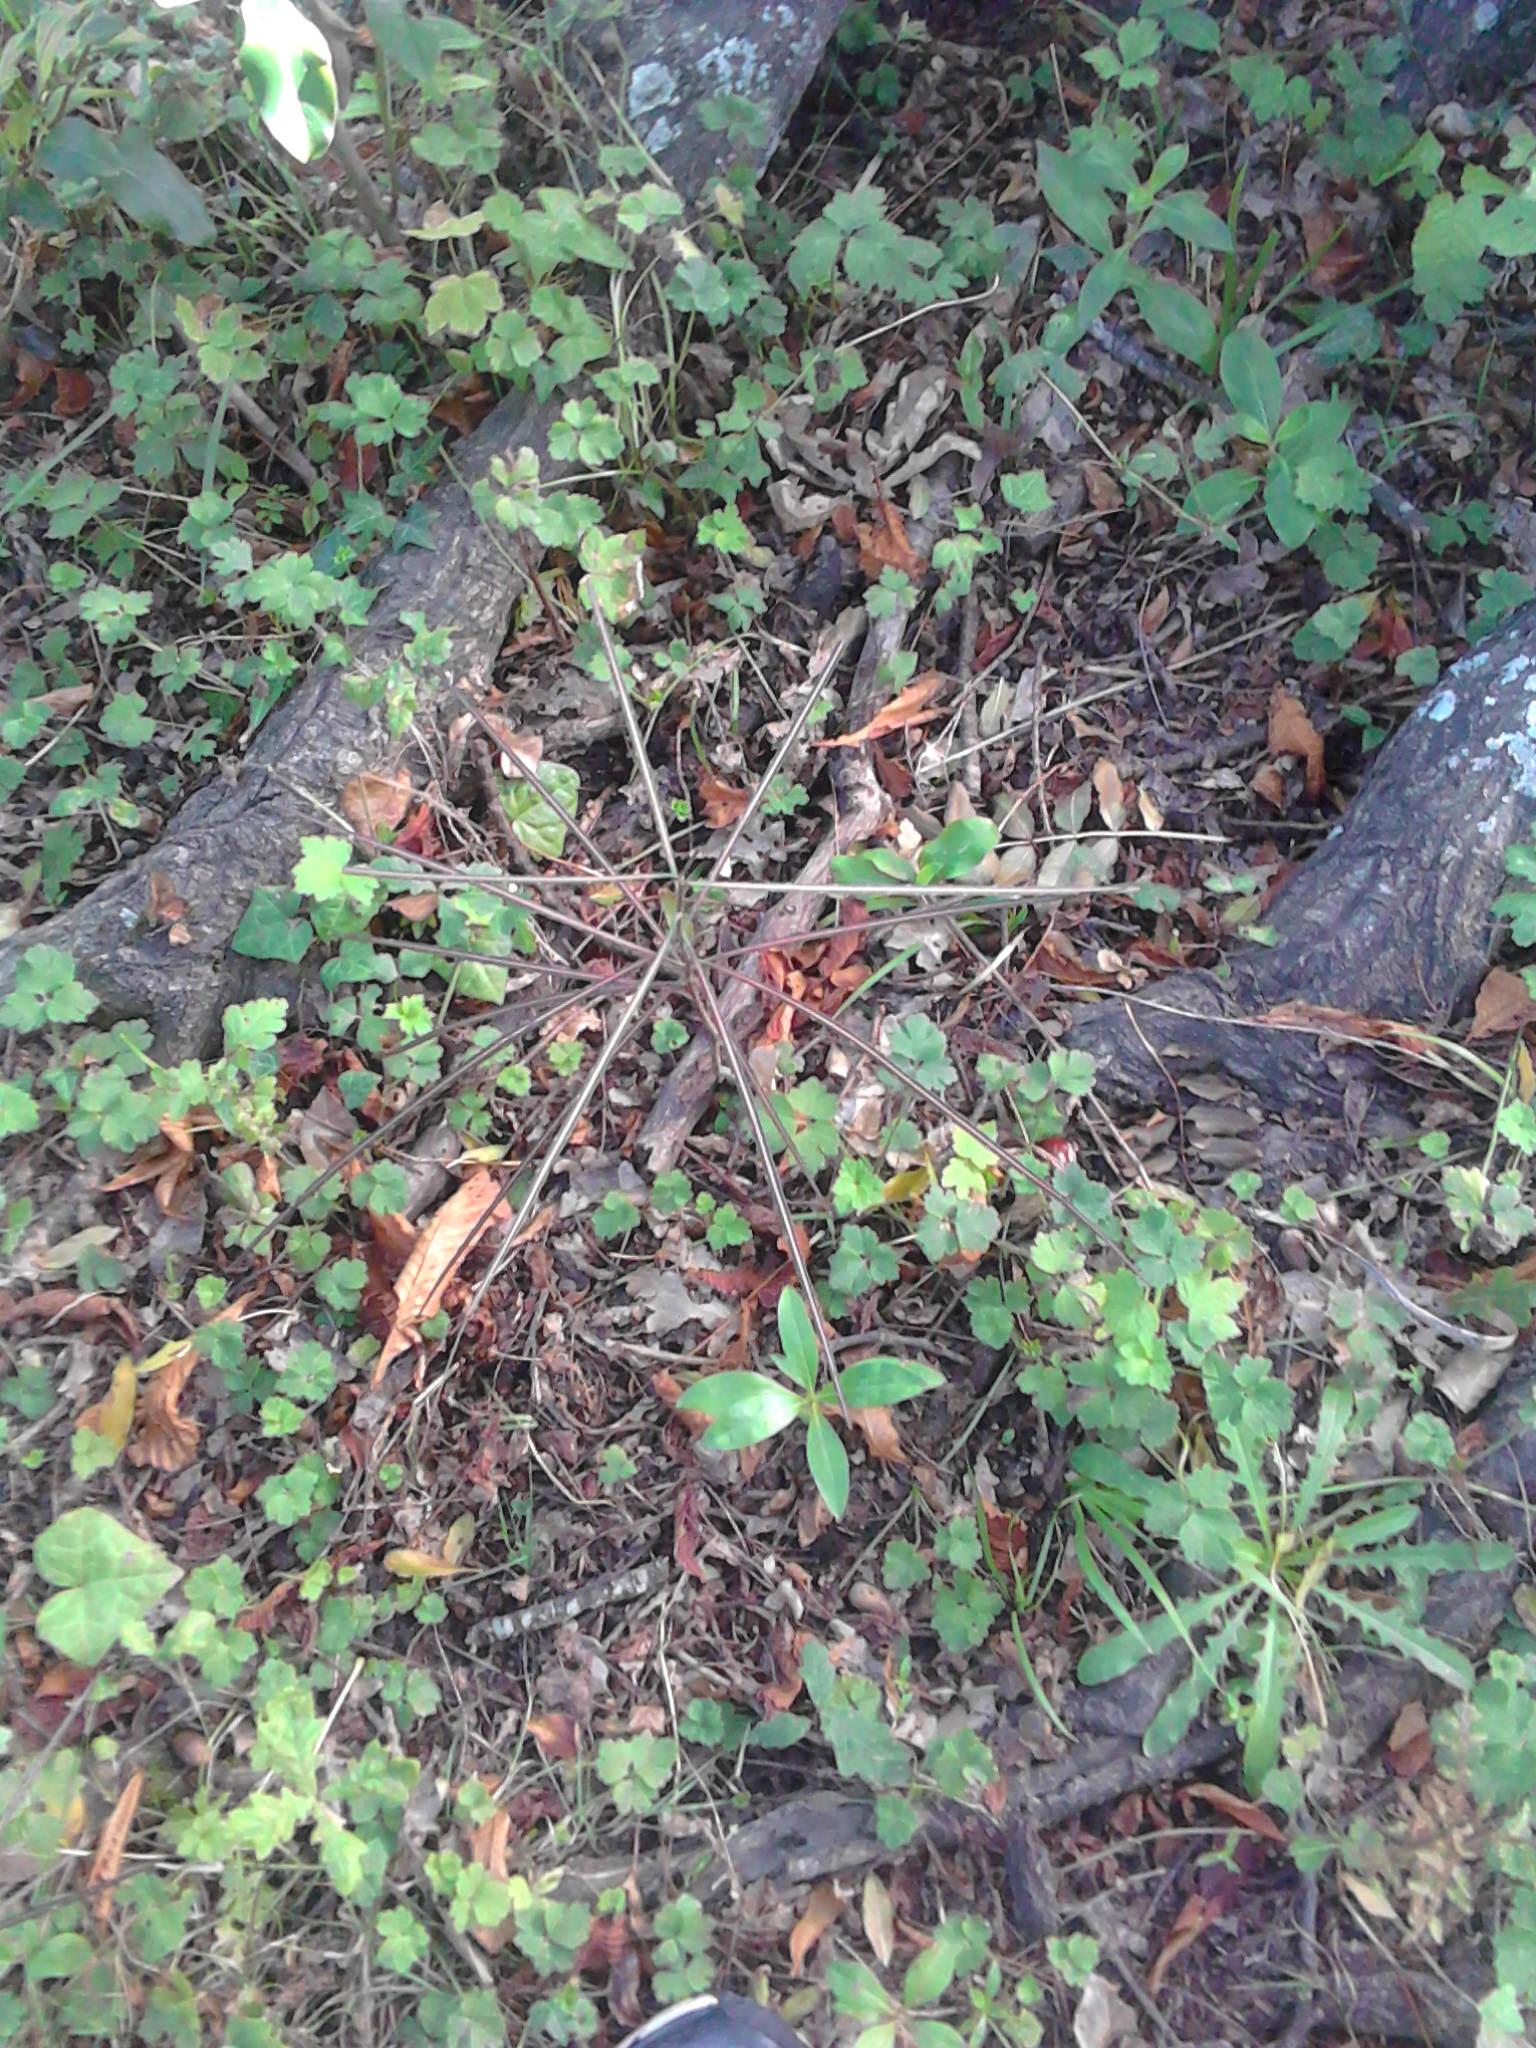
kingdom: Plantae
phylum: Tracheophyta
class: Magnoliopsida
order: Apiales
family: Araliaceae
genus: Pseudopanax
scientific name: Pseudopanax crassifolius
